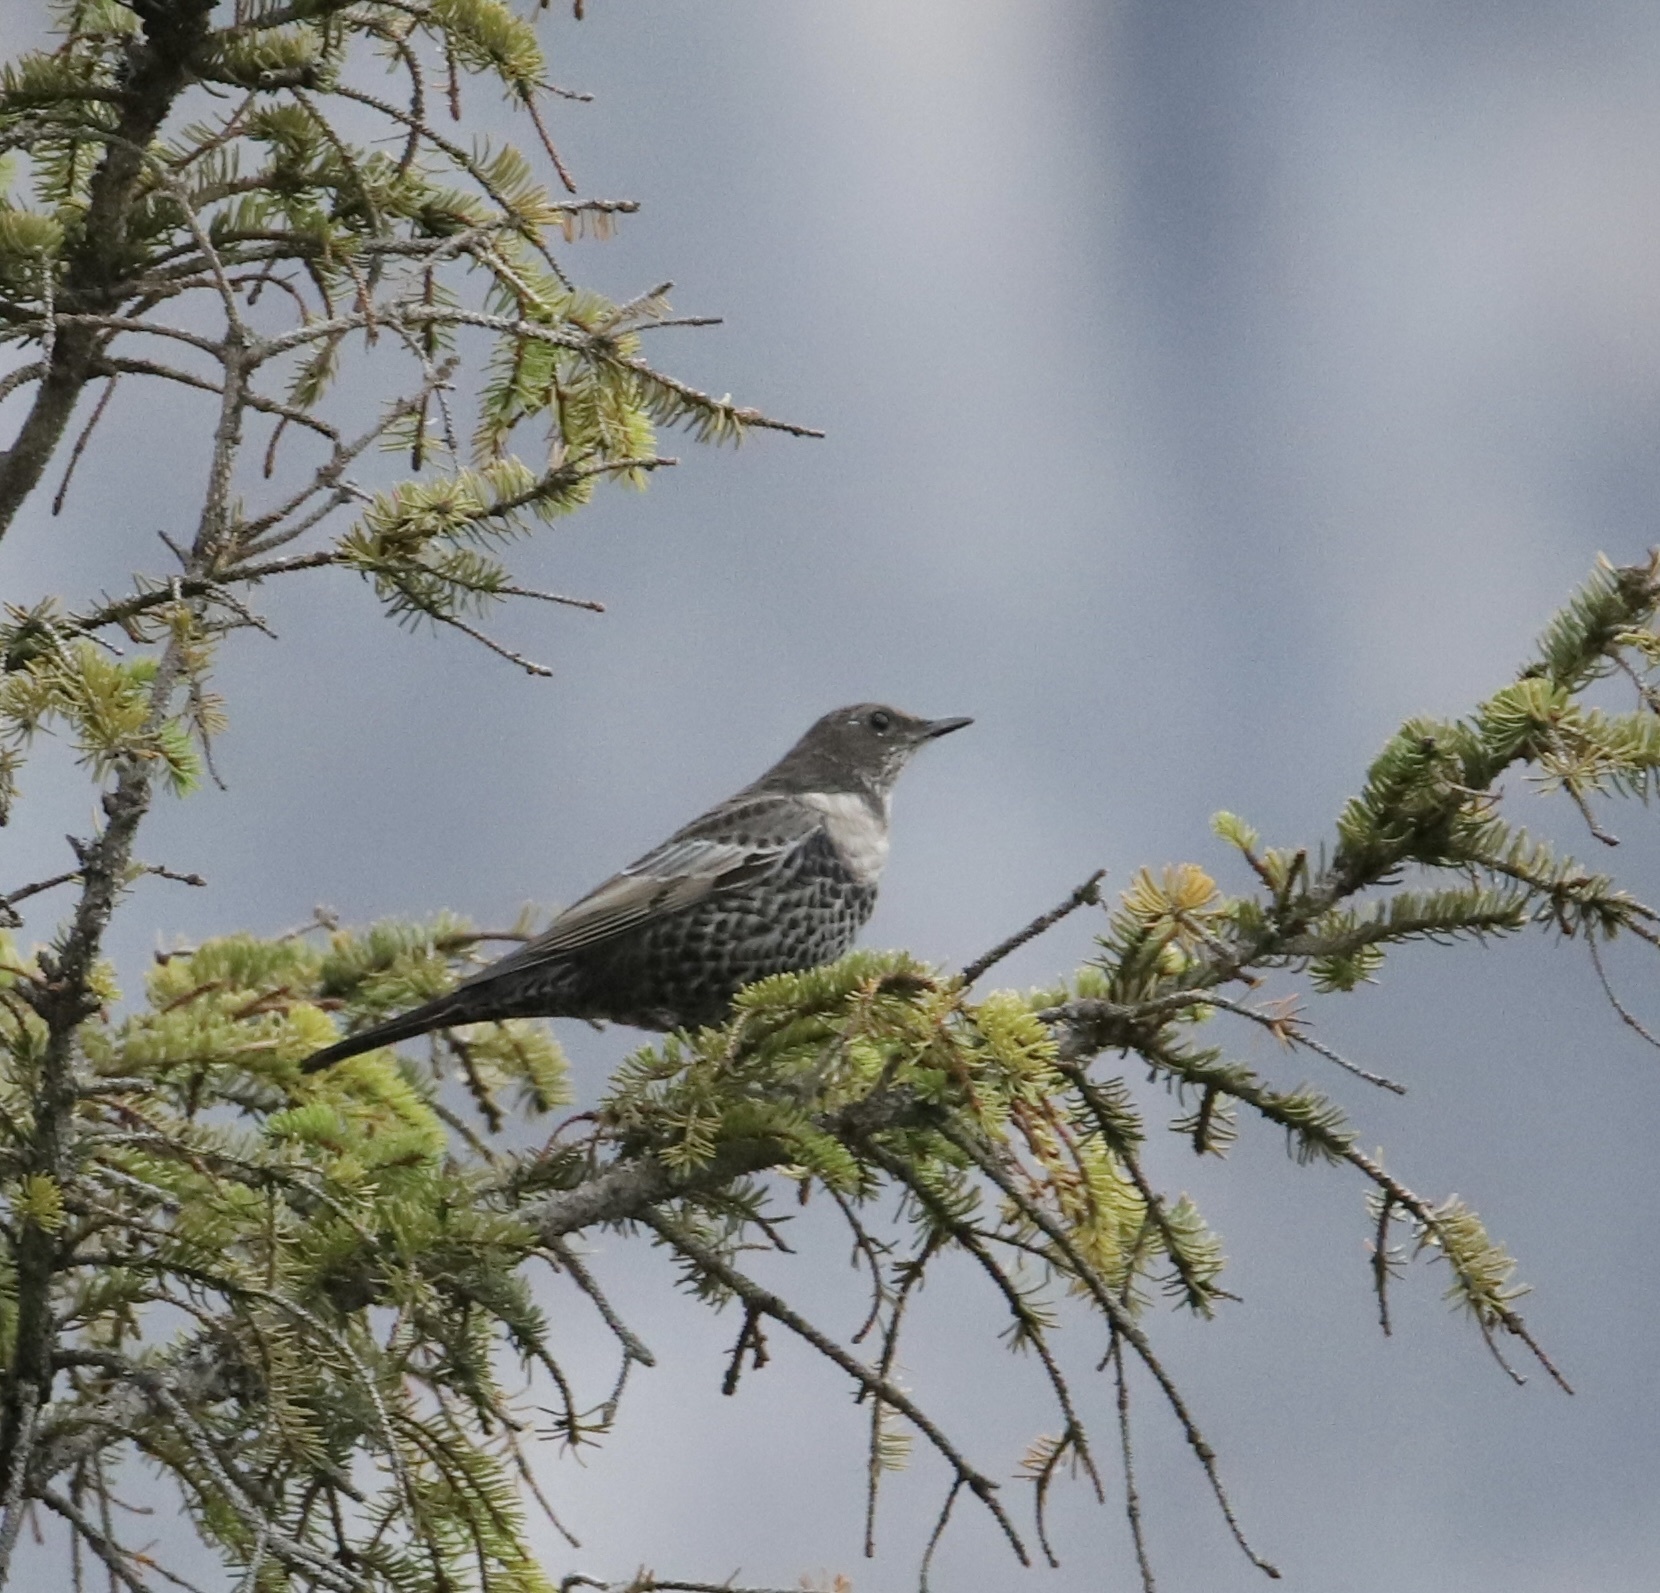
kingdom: Animalia
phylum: Chordata
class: Aves
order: Passeriformes
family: Turdidae
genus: Turdus
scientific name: Turdus torquatus
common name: Ring ouzel
